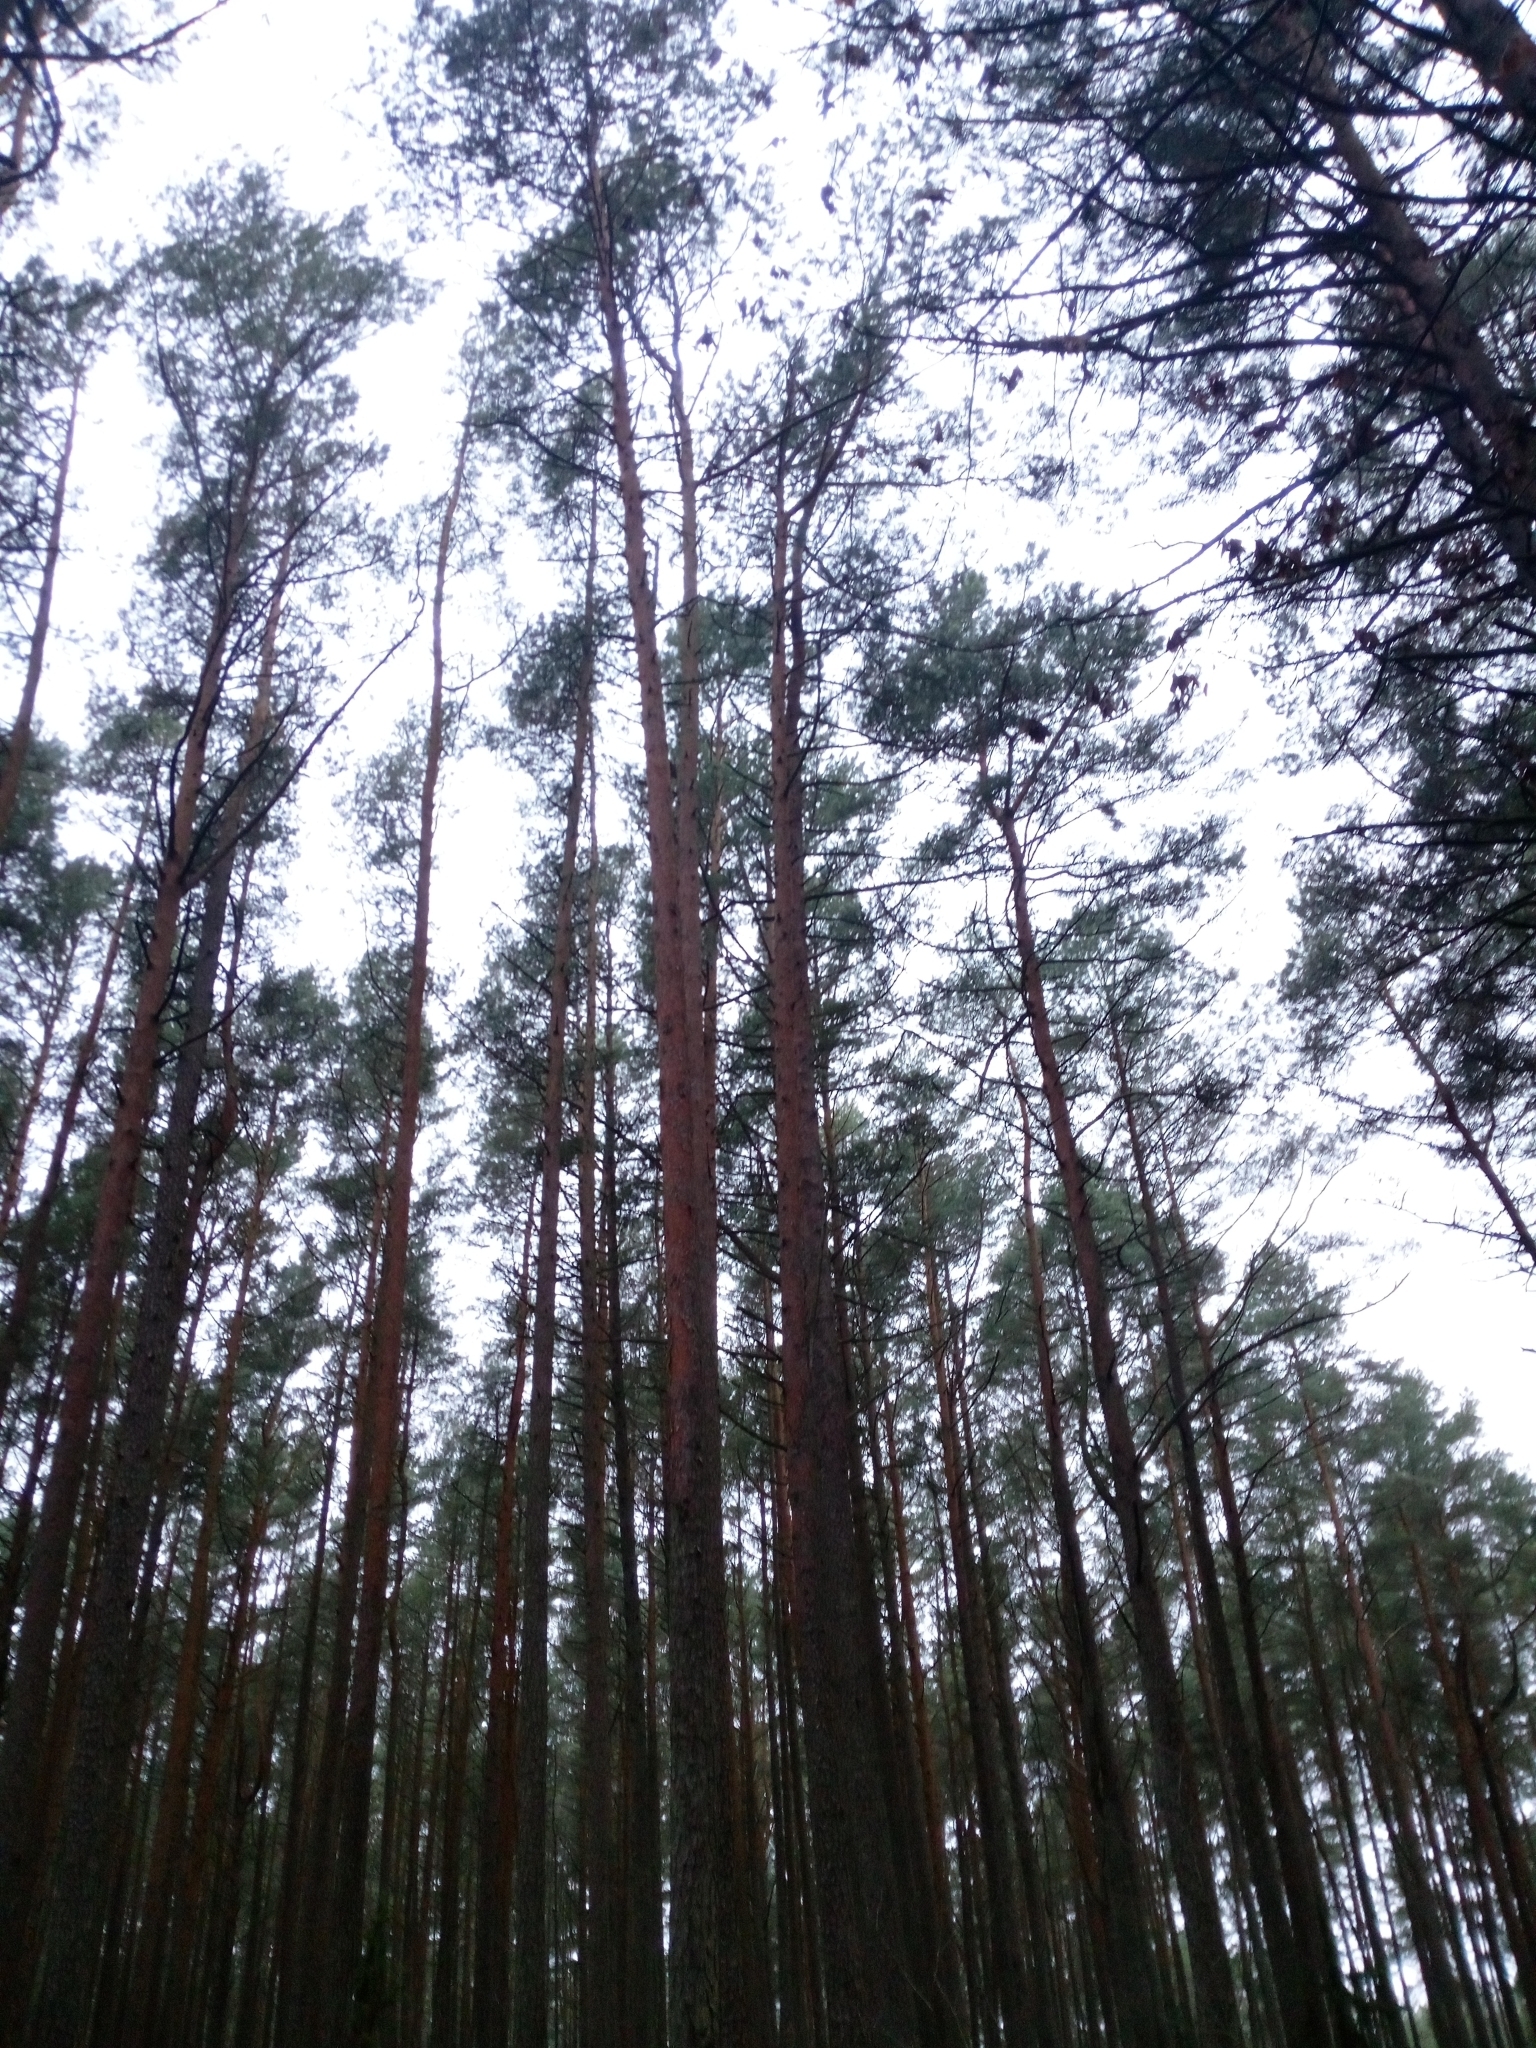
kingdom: Plantae
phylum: Tracheophyta
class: Pinopsida
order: Pinales
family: Pinaceae
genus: Pinus
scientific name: Pinus sylvestris
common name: Scots pine
